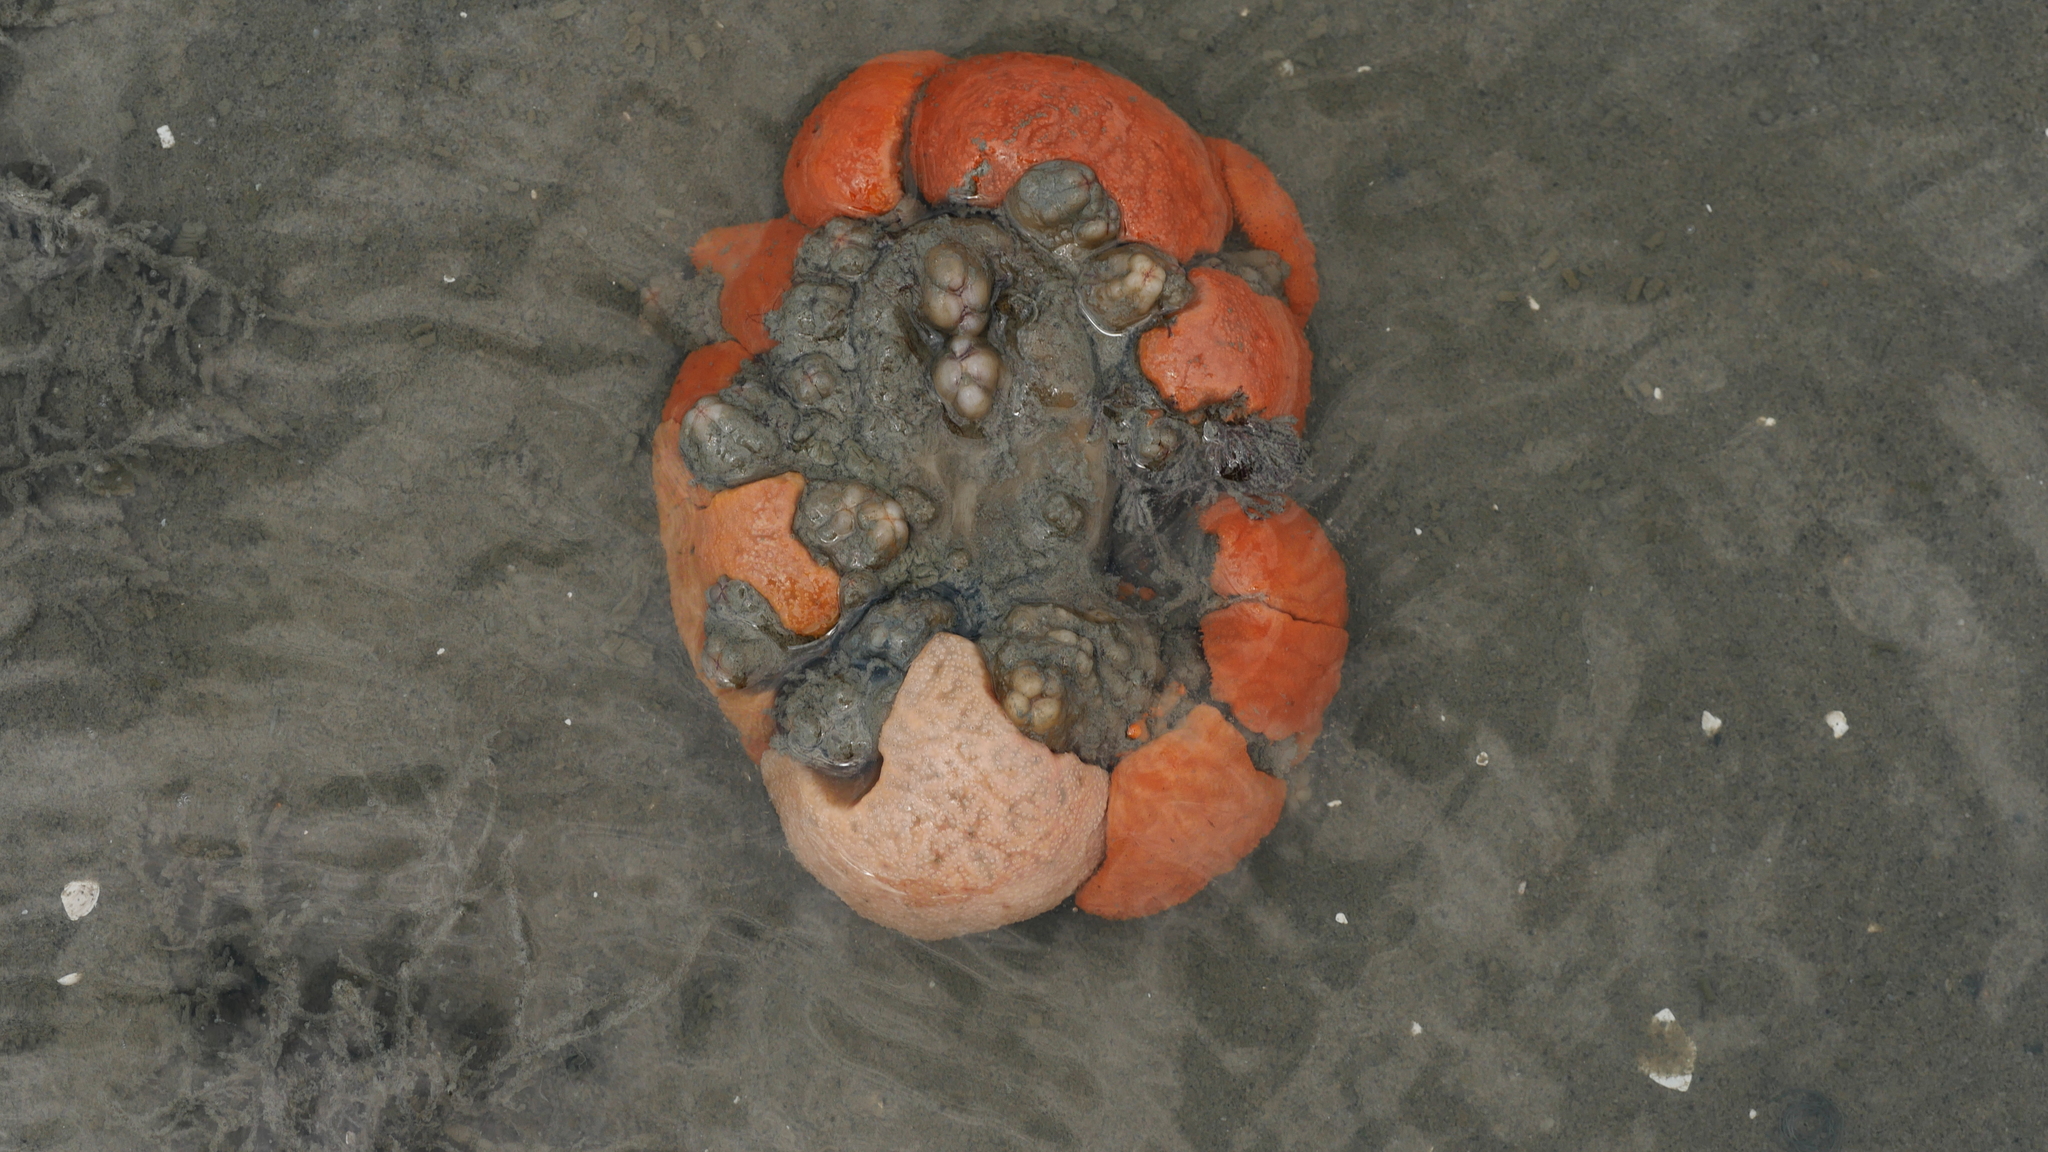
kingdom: Animalia
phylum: Chordata
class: Ascidiacea
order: Aplousobranchia
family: Polyclinidae
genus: Aplidium
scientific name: Aplidium stellatum
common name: Atlantic sea pork
